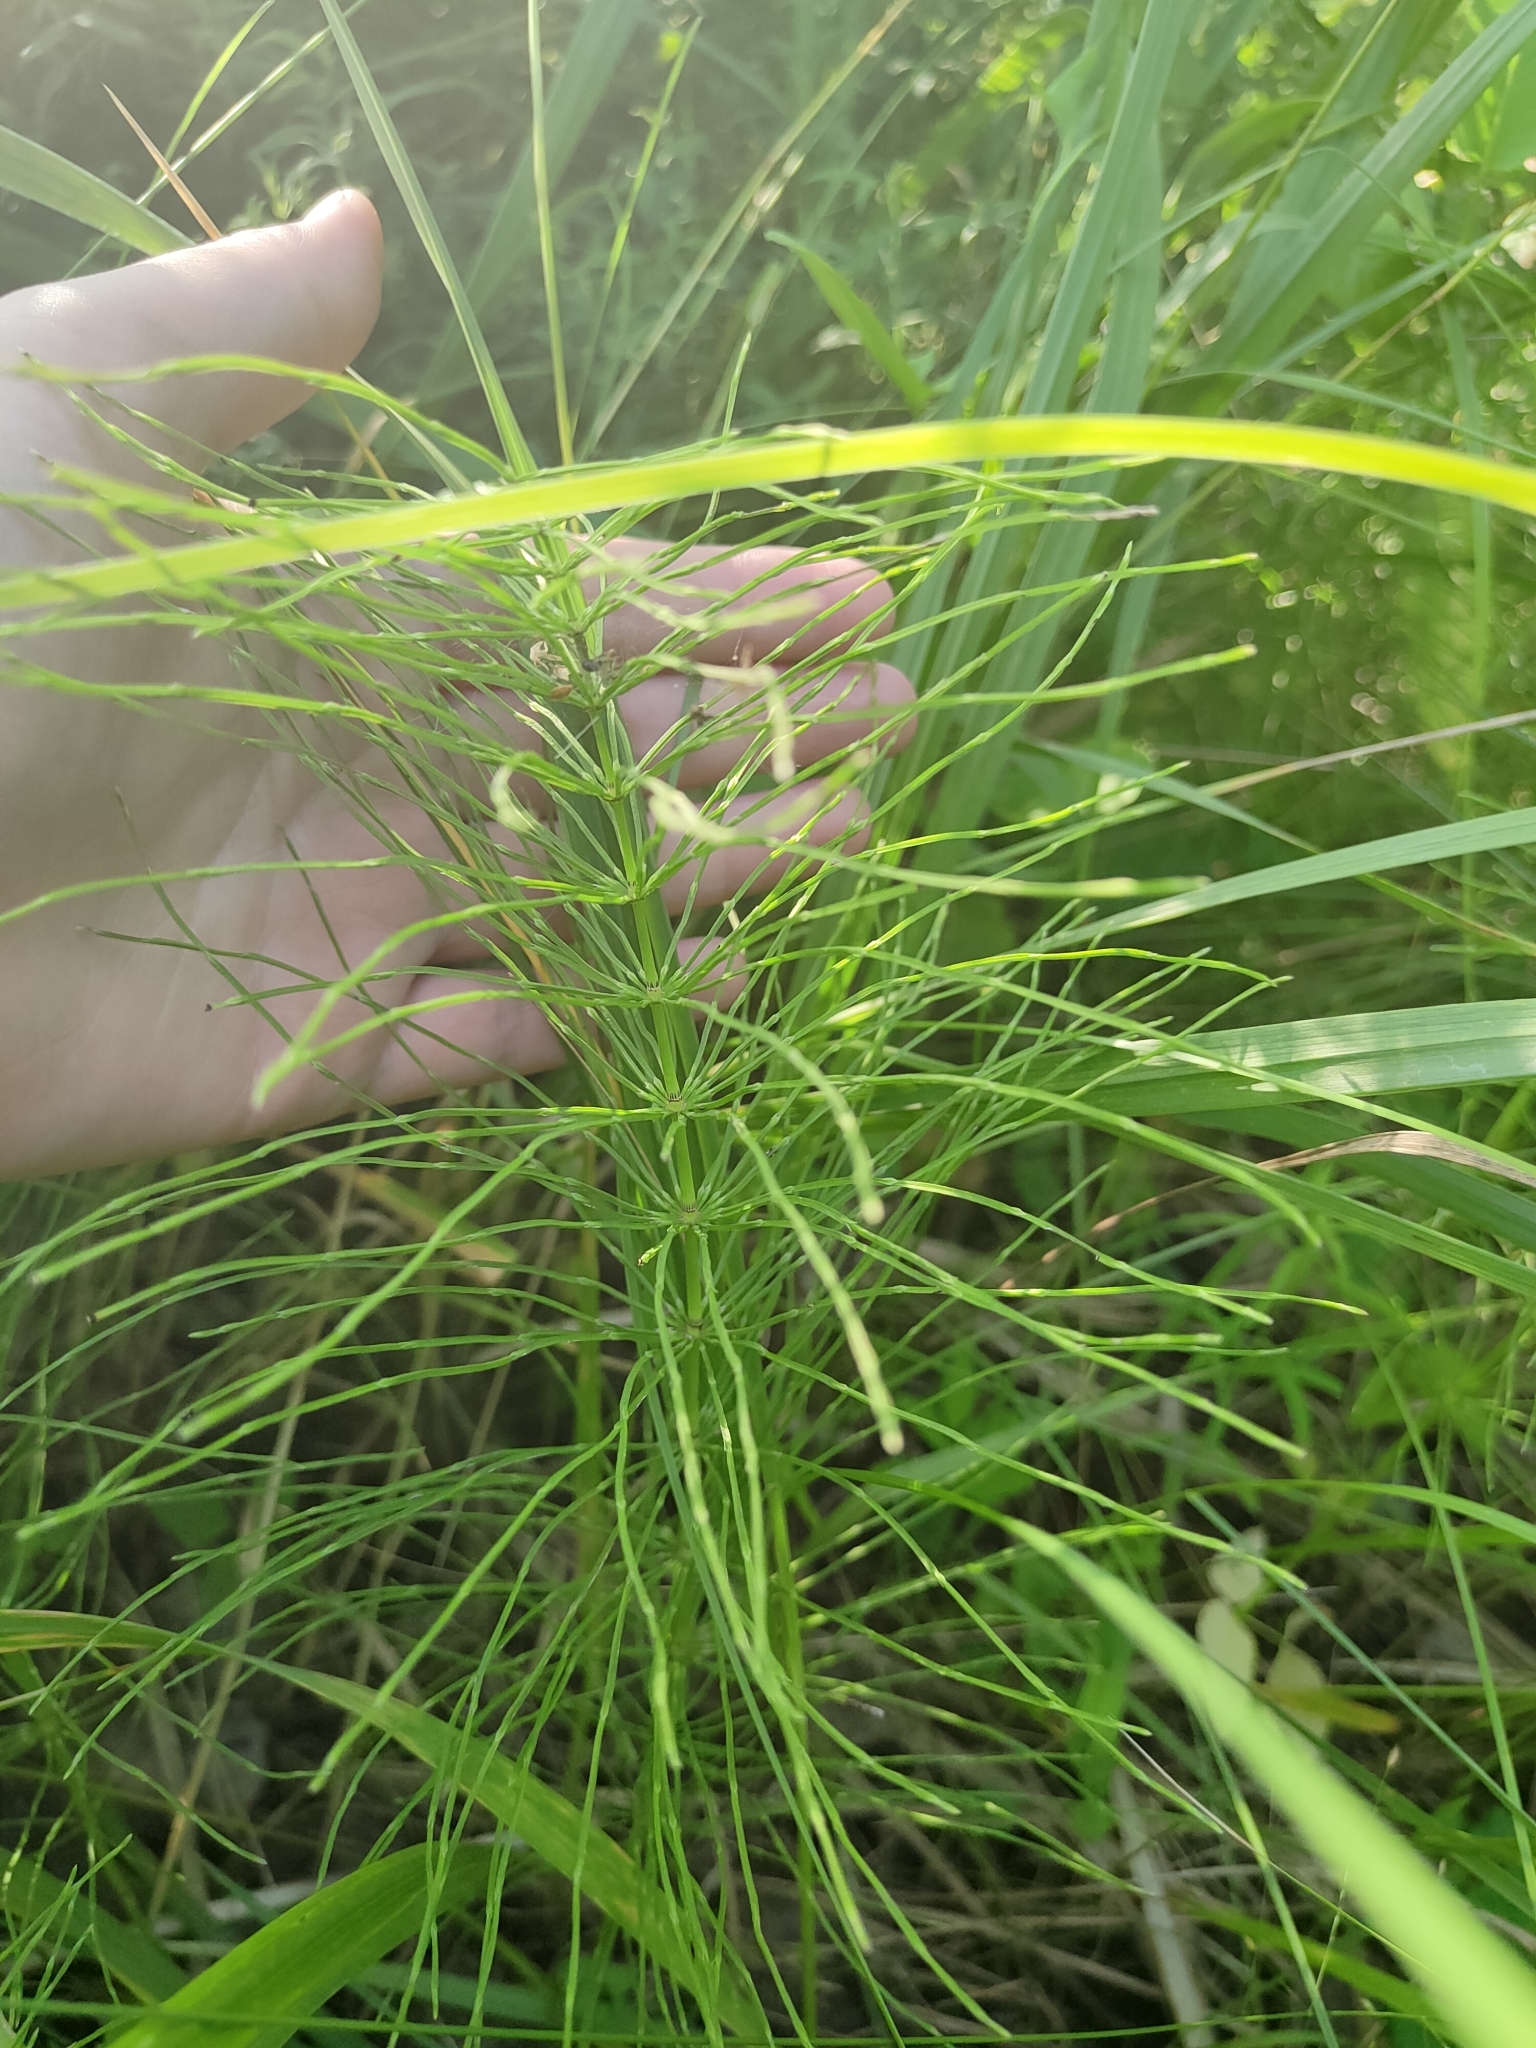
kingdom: Plantae
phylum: Tracheophyta
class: Polypodiopsida
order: Equisetales
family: Equisetaceae
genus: Equisetum
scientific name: Equisetum arvense
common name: Field horsetail
